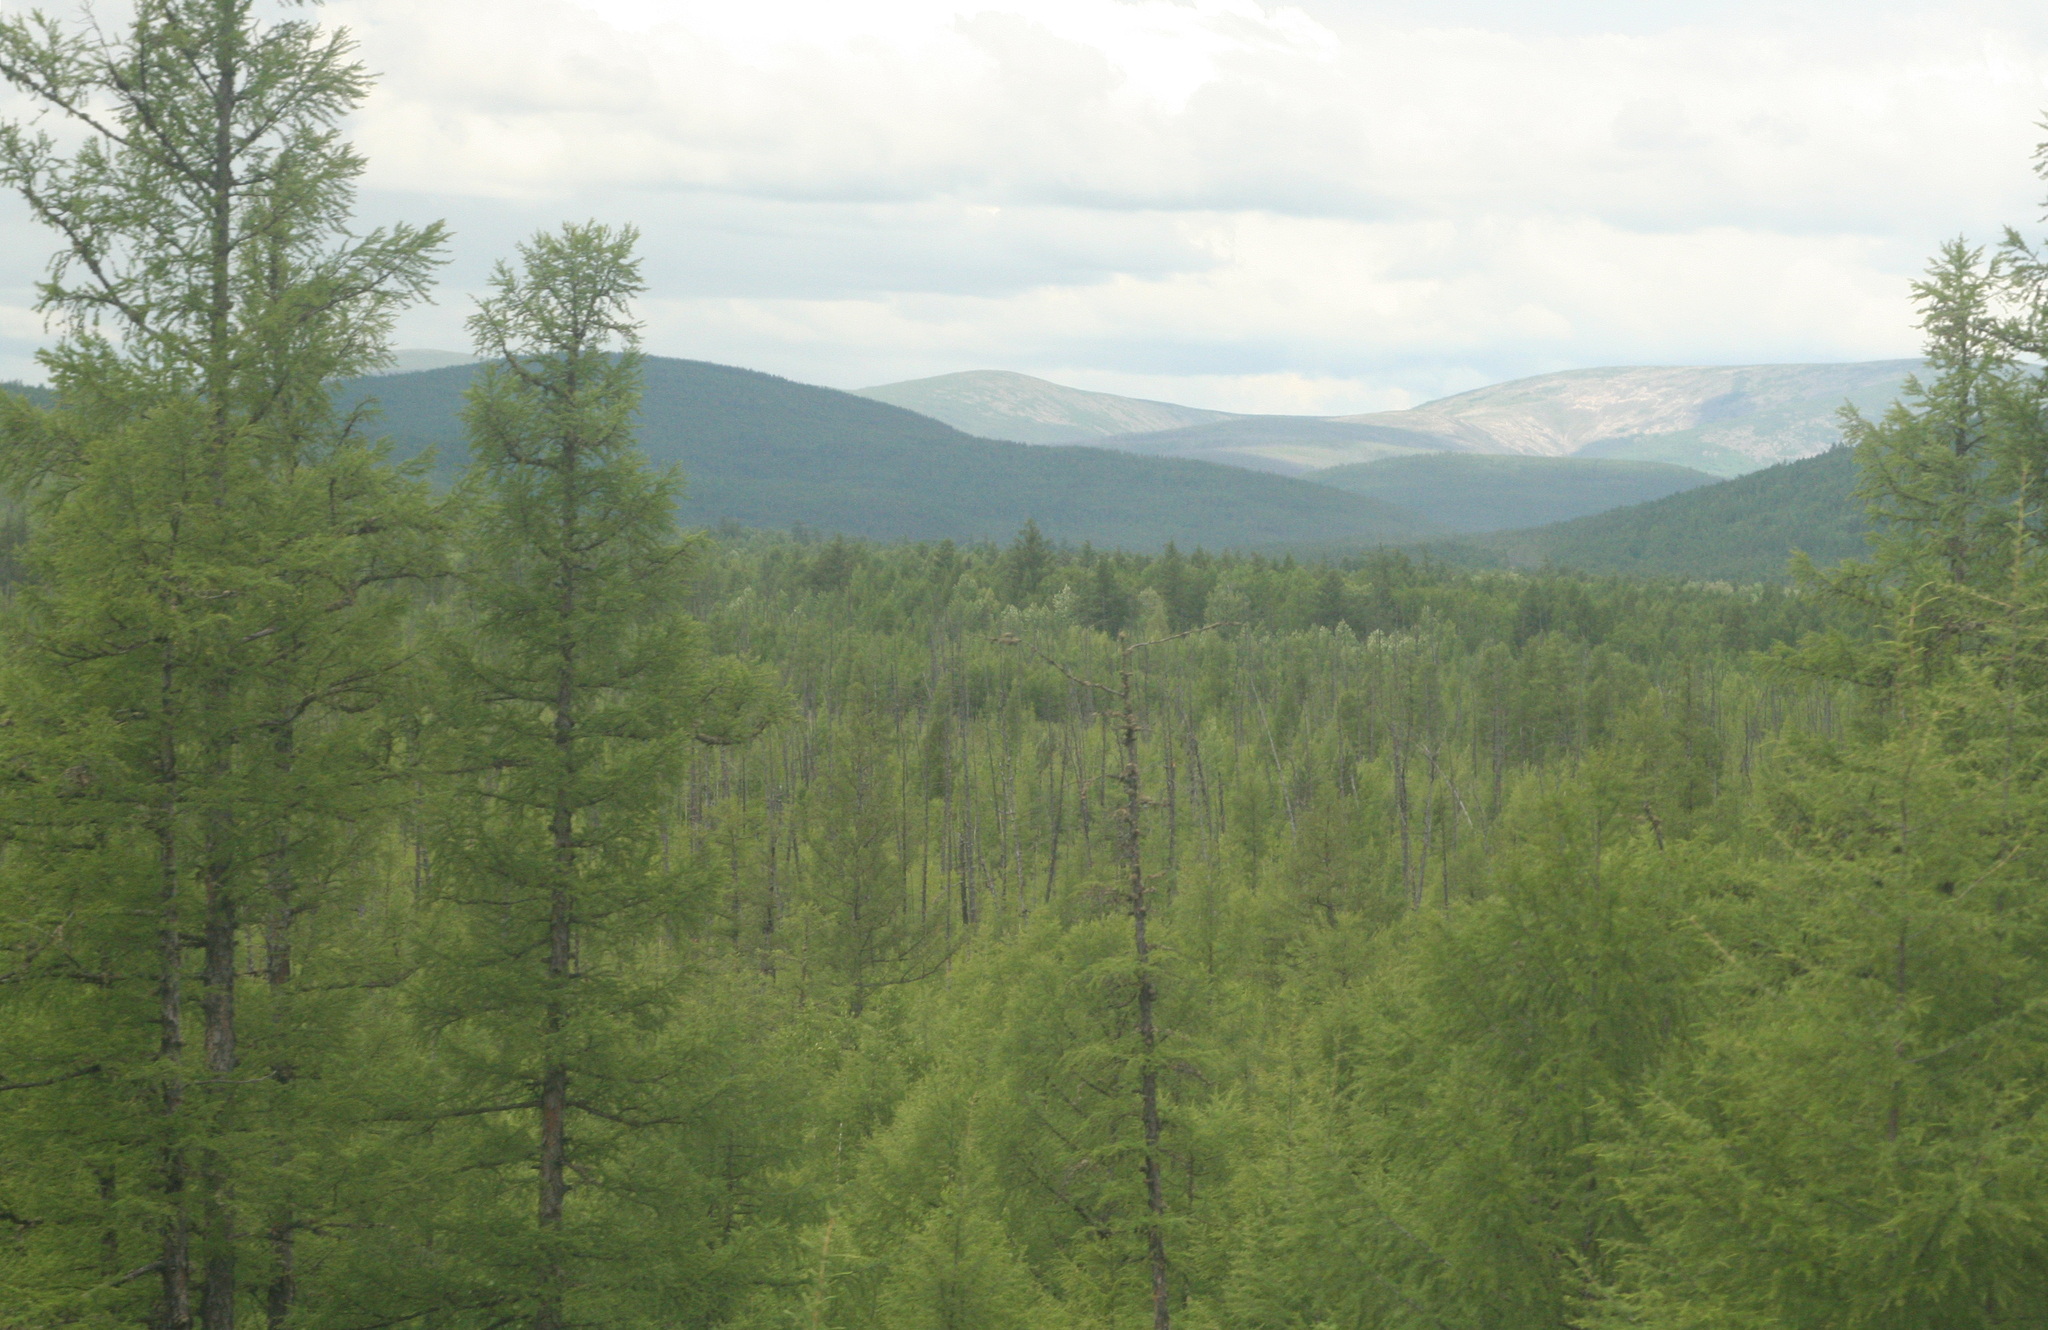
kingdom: Plantae
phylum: Tracheophyta
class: Pinopsida
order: Pinales
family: Pinaceae
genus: Larix
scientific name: Larix gmelinii
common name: Dahurian larch
